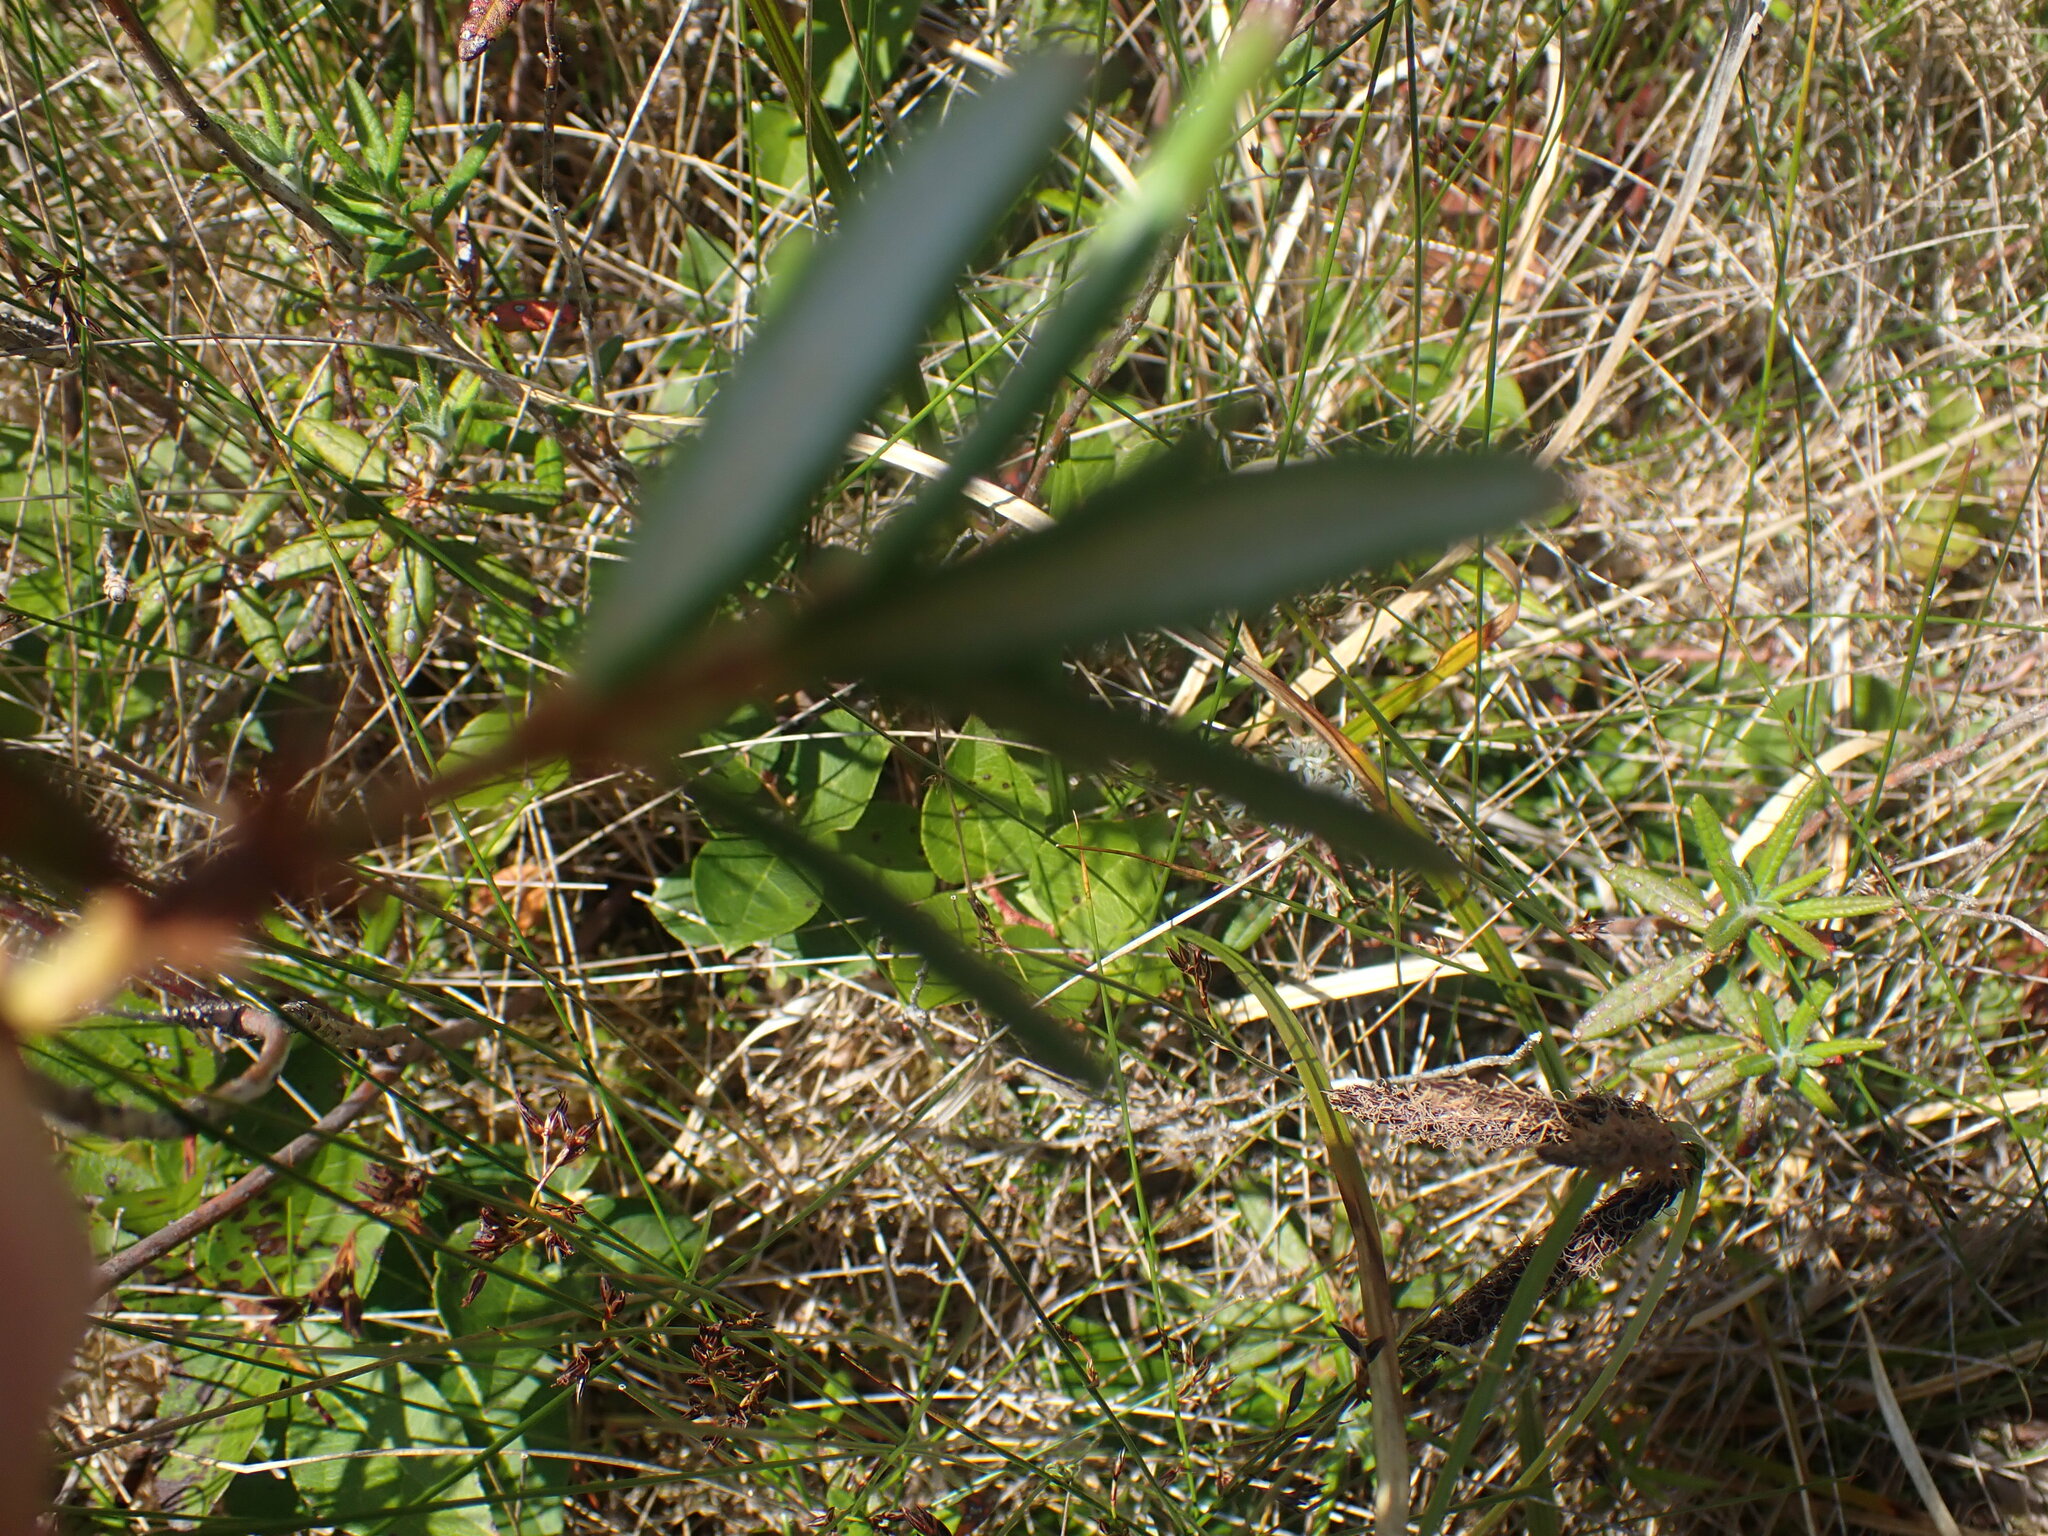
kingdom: Plantae
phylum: Tracheophyta
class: Magnoliopsida
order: Ericales
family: Ericaceae
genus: Rhododendron
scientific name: Rhododendron groenlandicum
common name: Bog labrador tea
